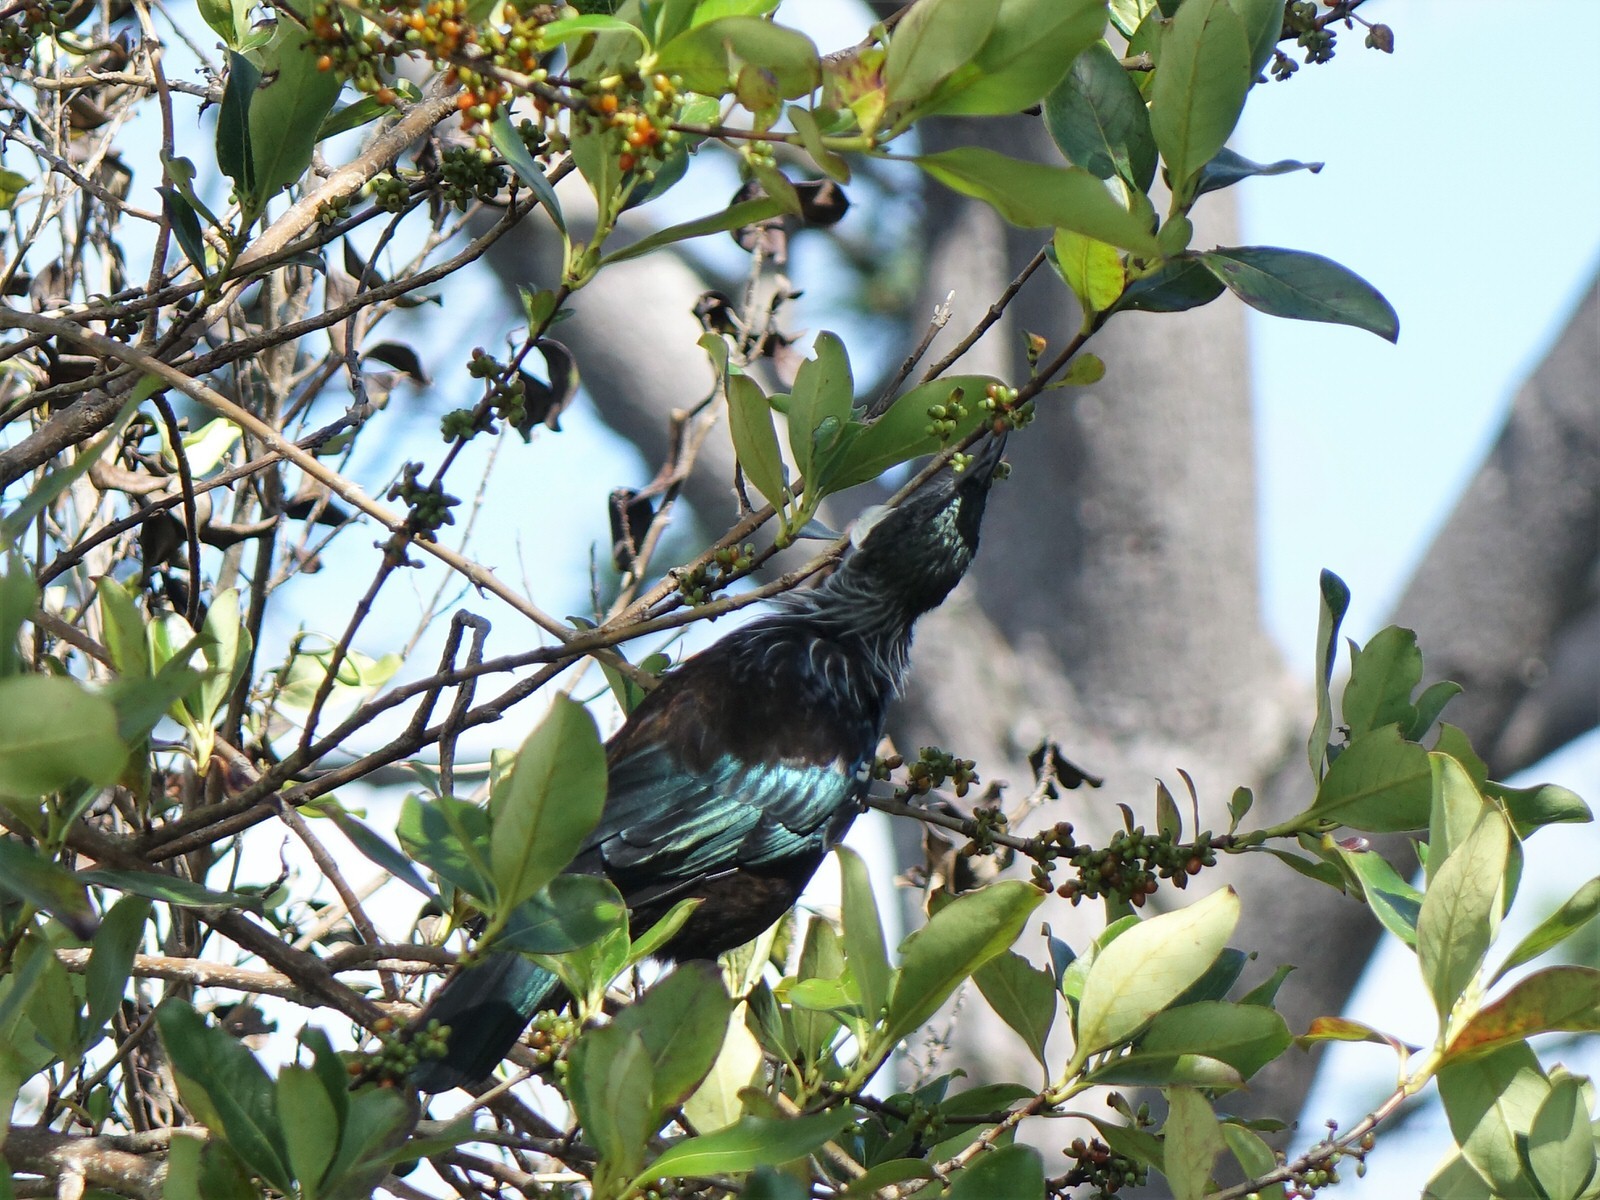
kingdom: Animalia
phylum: Chordata
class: Aves
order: Passeriformes
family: Meliphagidae
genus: Prosthemadera
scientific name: Prosthemadera novaeseelandiae
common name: Tui
